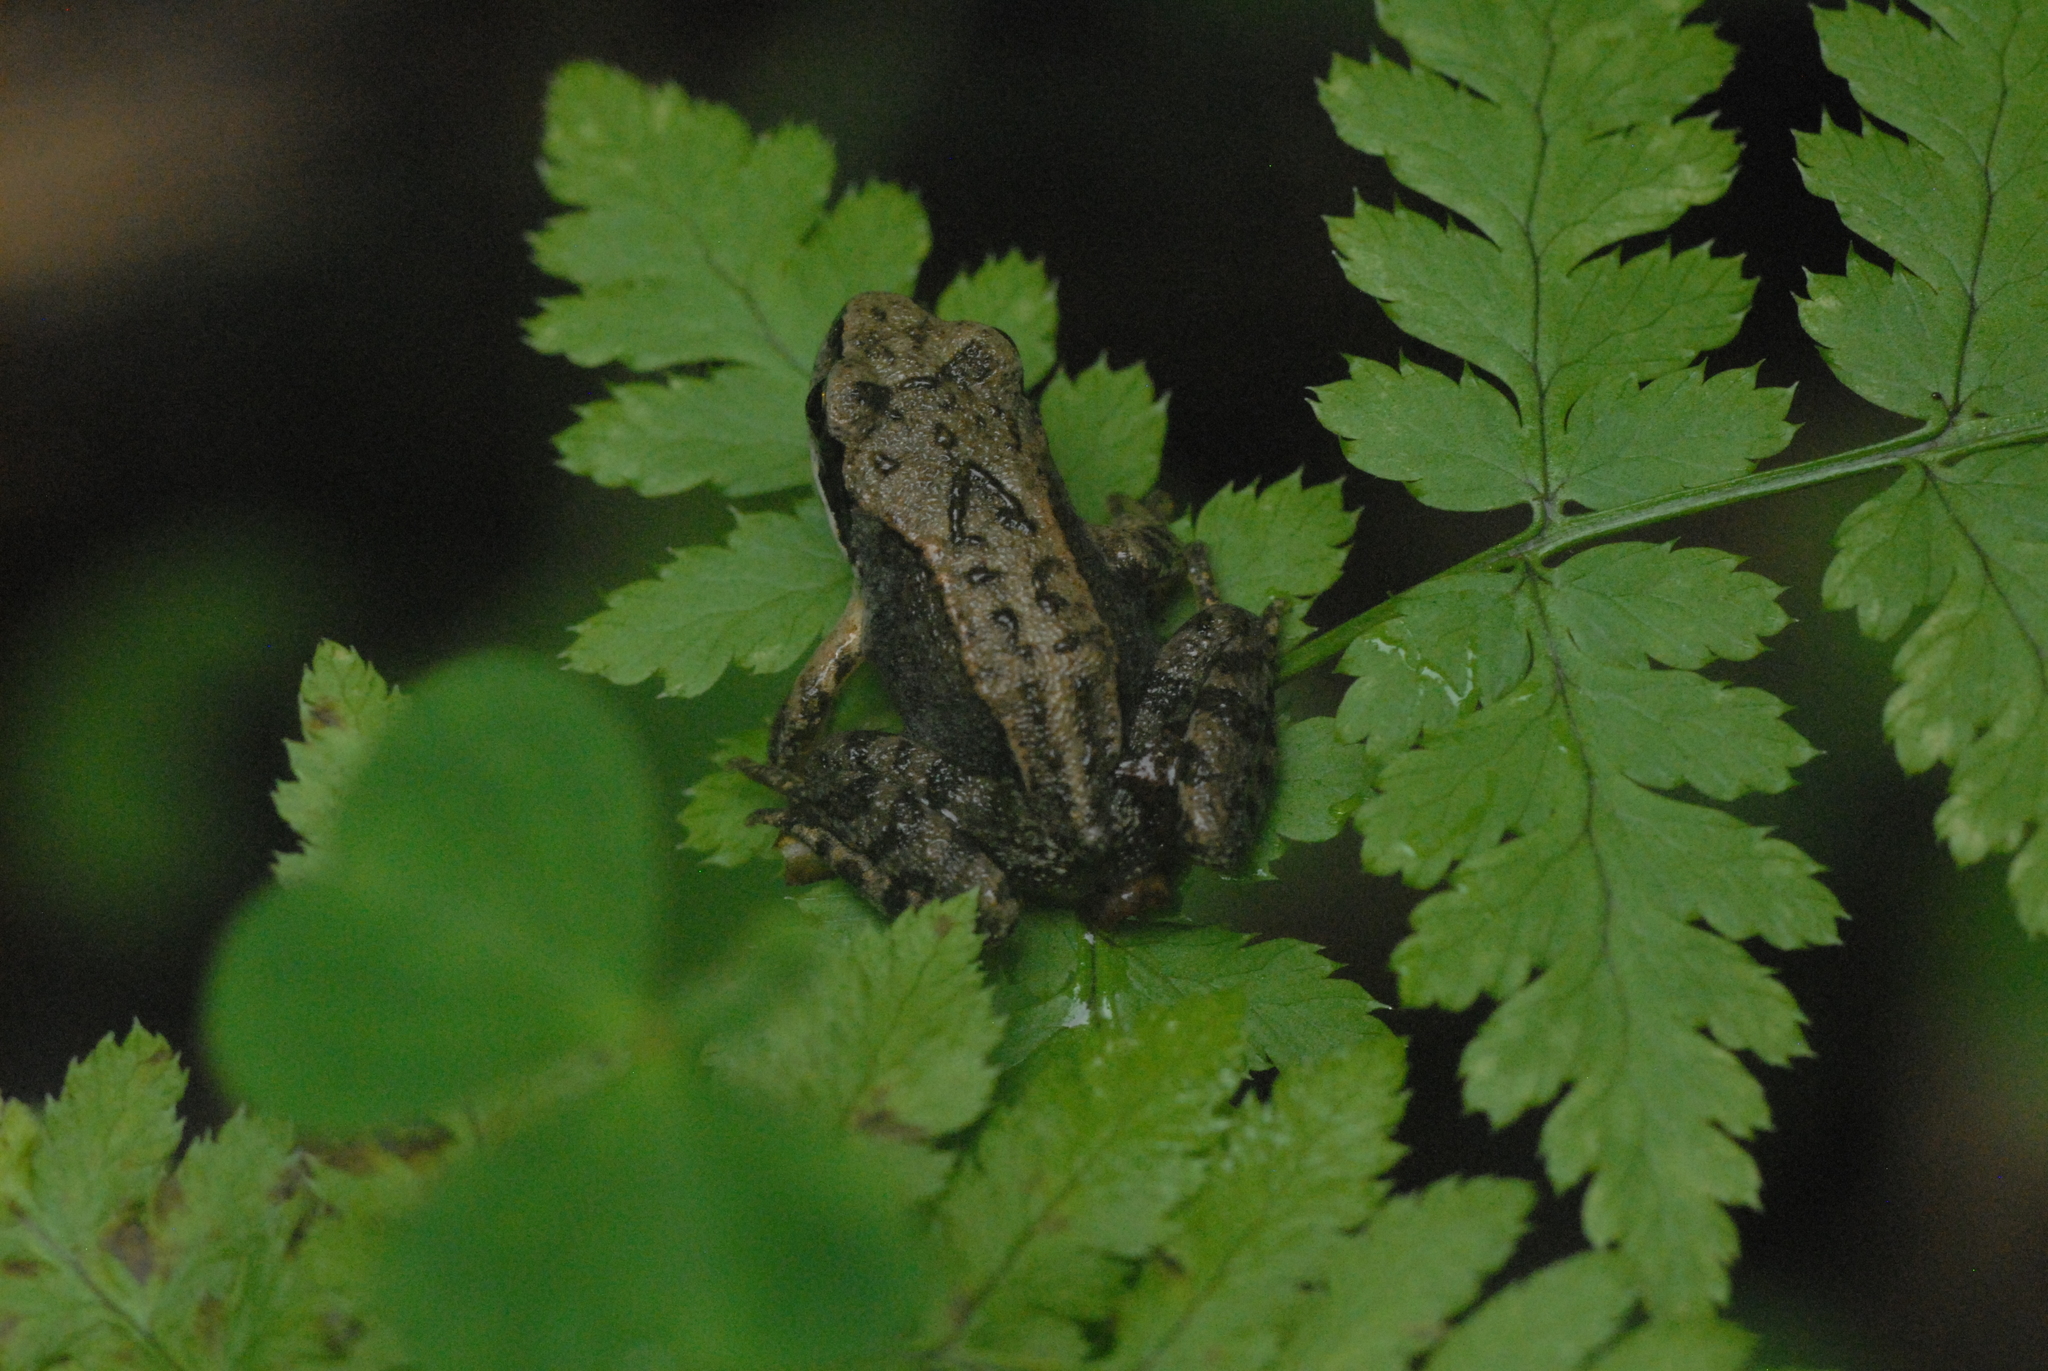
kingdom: Animalia
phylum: Chordata
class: Amphibia
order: Anura
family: Ranidae
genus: Rana
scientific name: Rana temporaria
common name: Common frog
